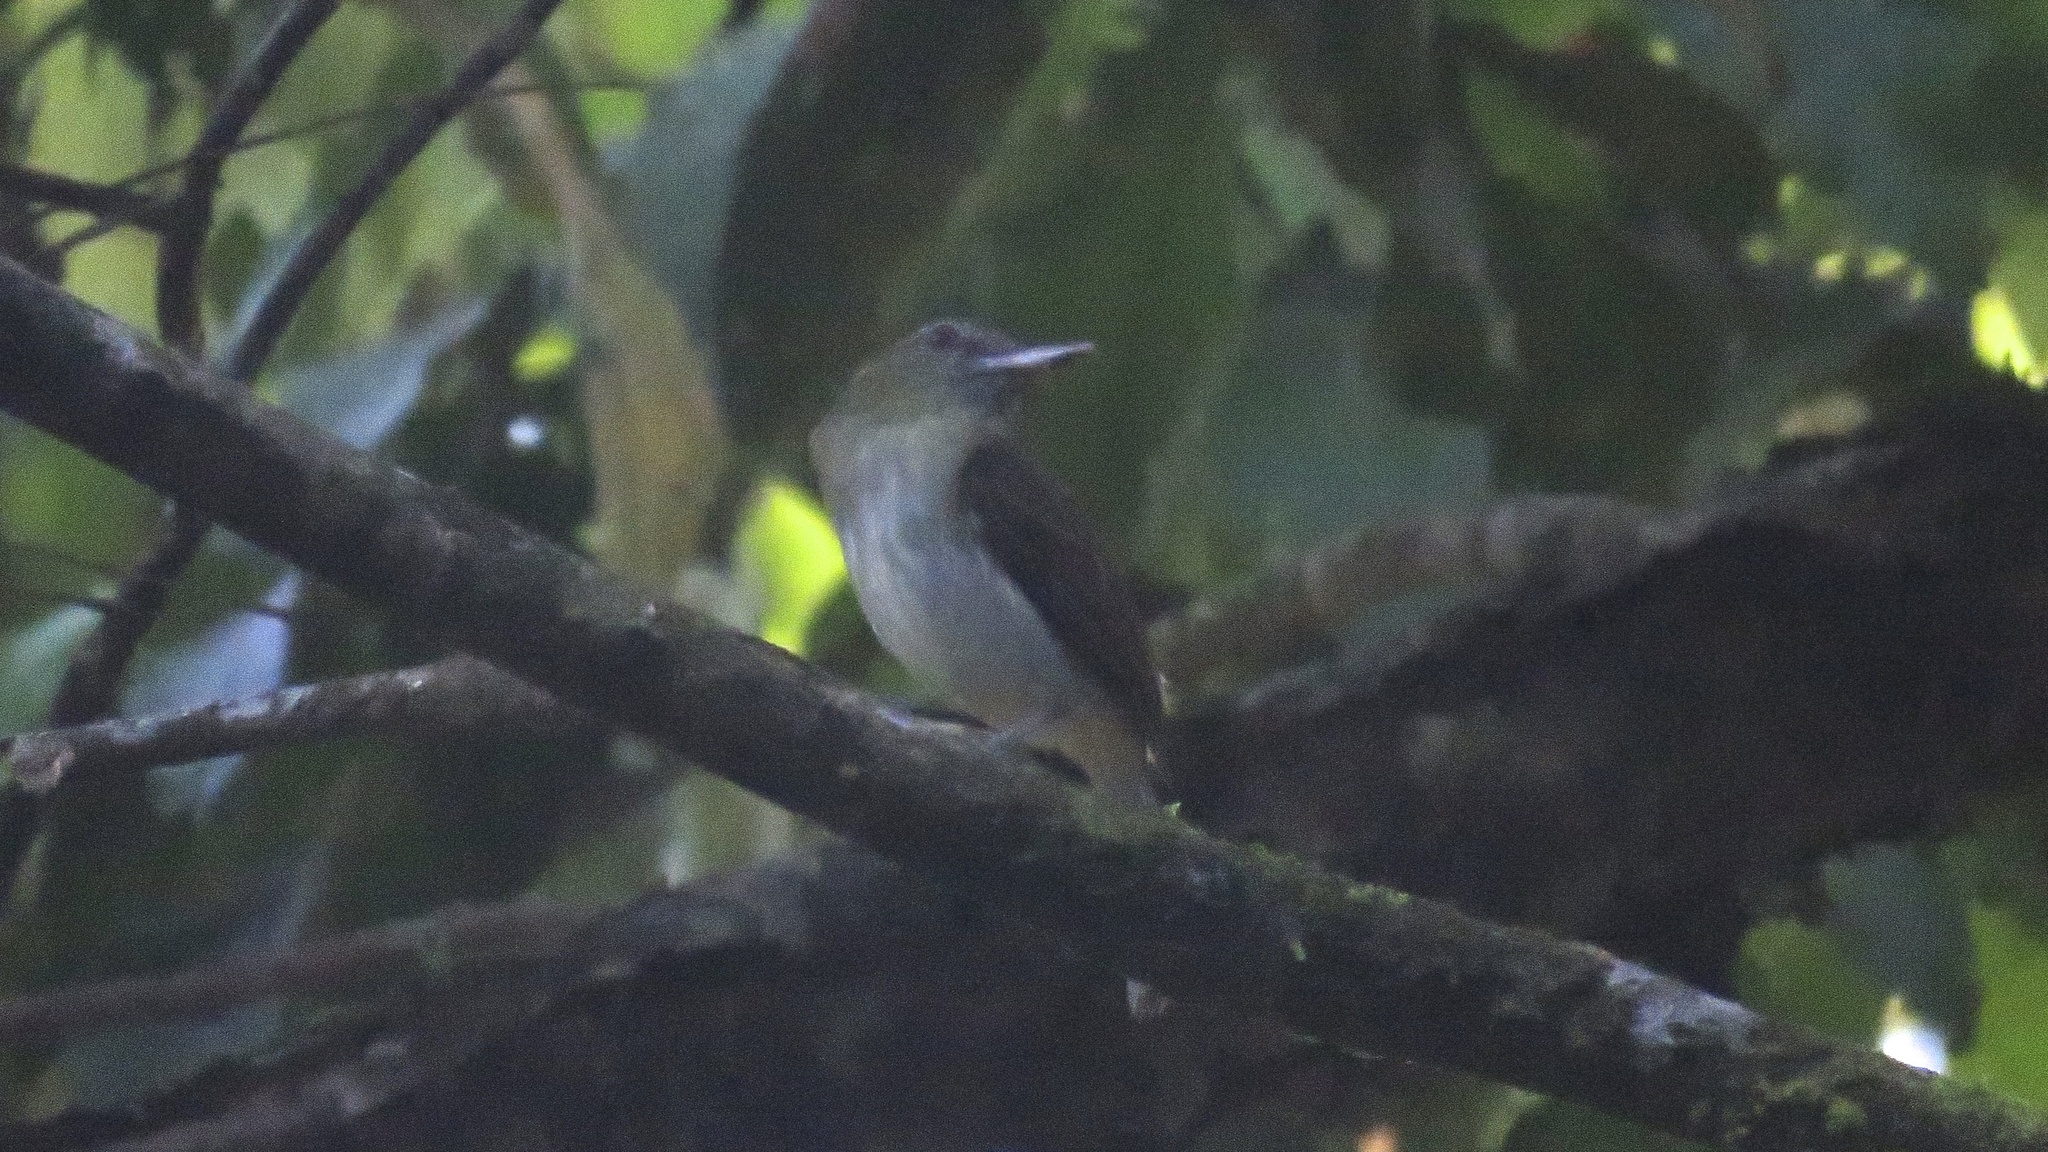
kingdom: Animalia
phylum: Chordata
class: Aves
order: Passeriformes
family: Tyrannidae
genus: Attila
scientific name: Attila spadiceus
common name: Bright-rumped attila
